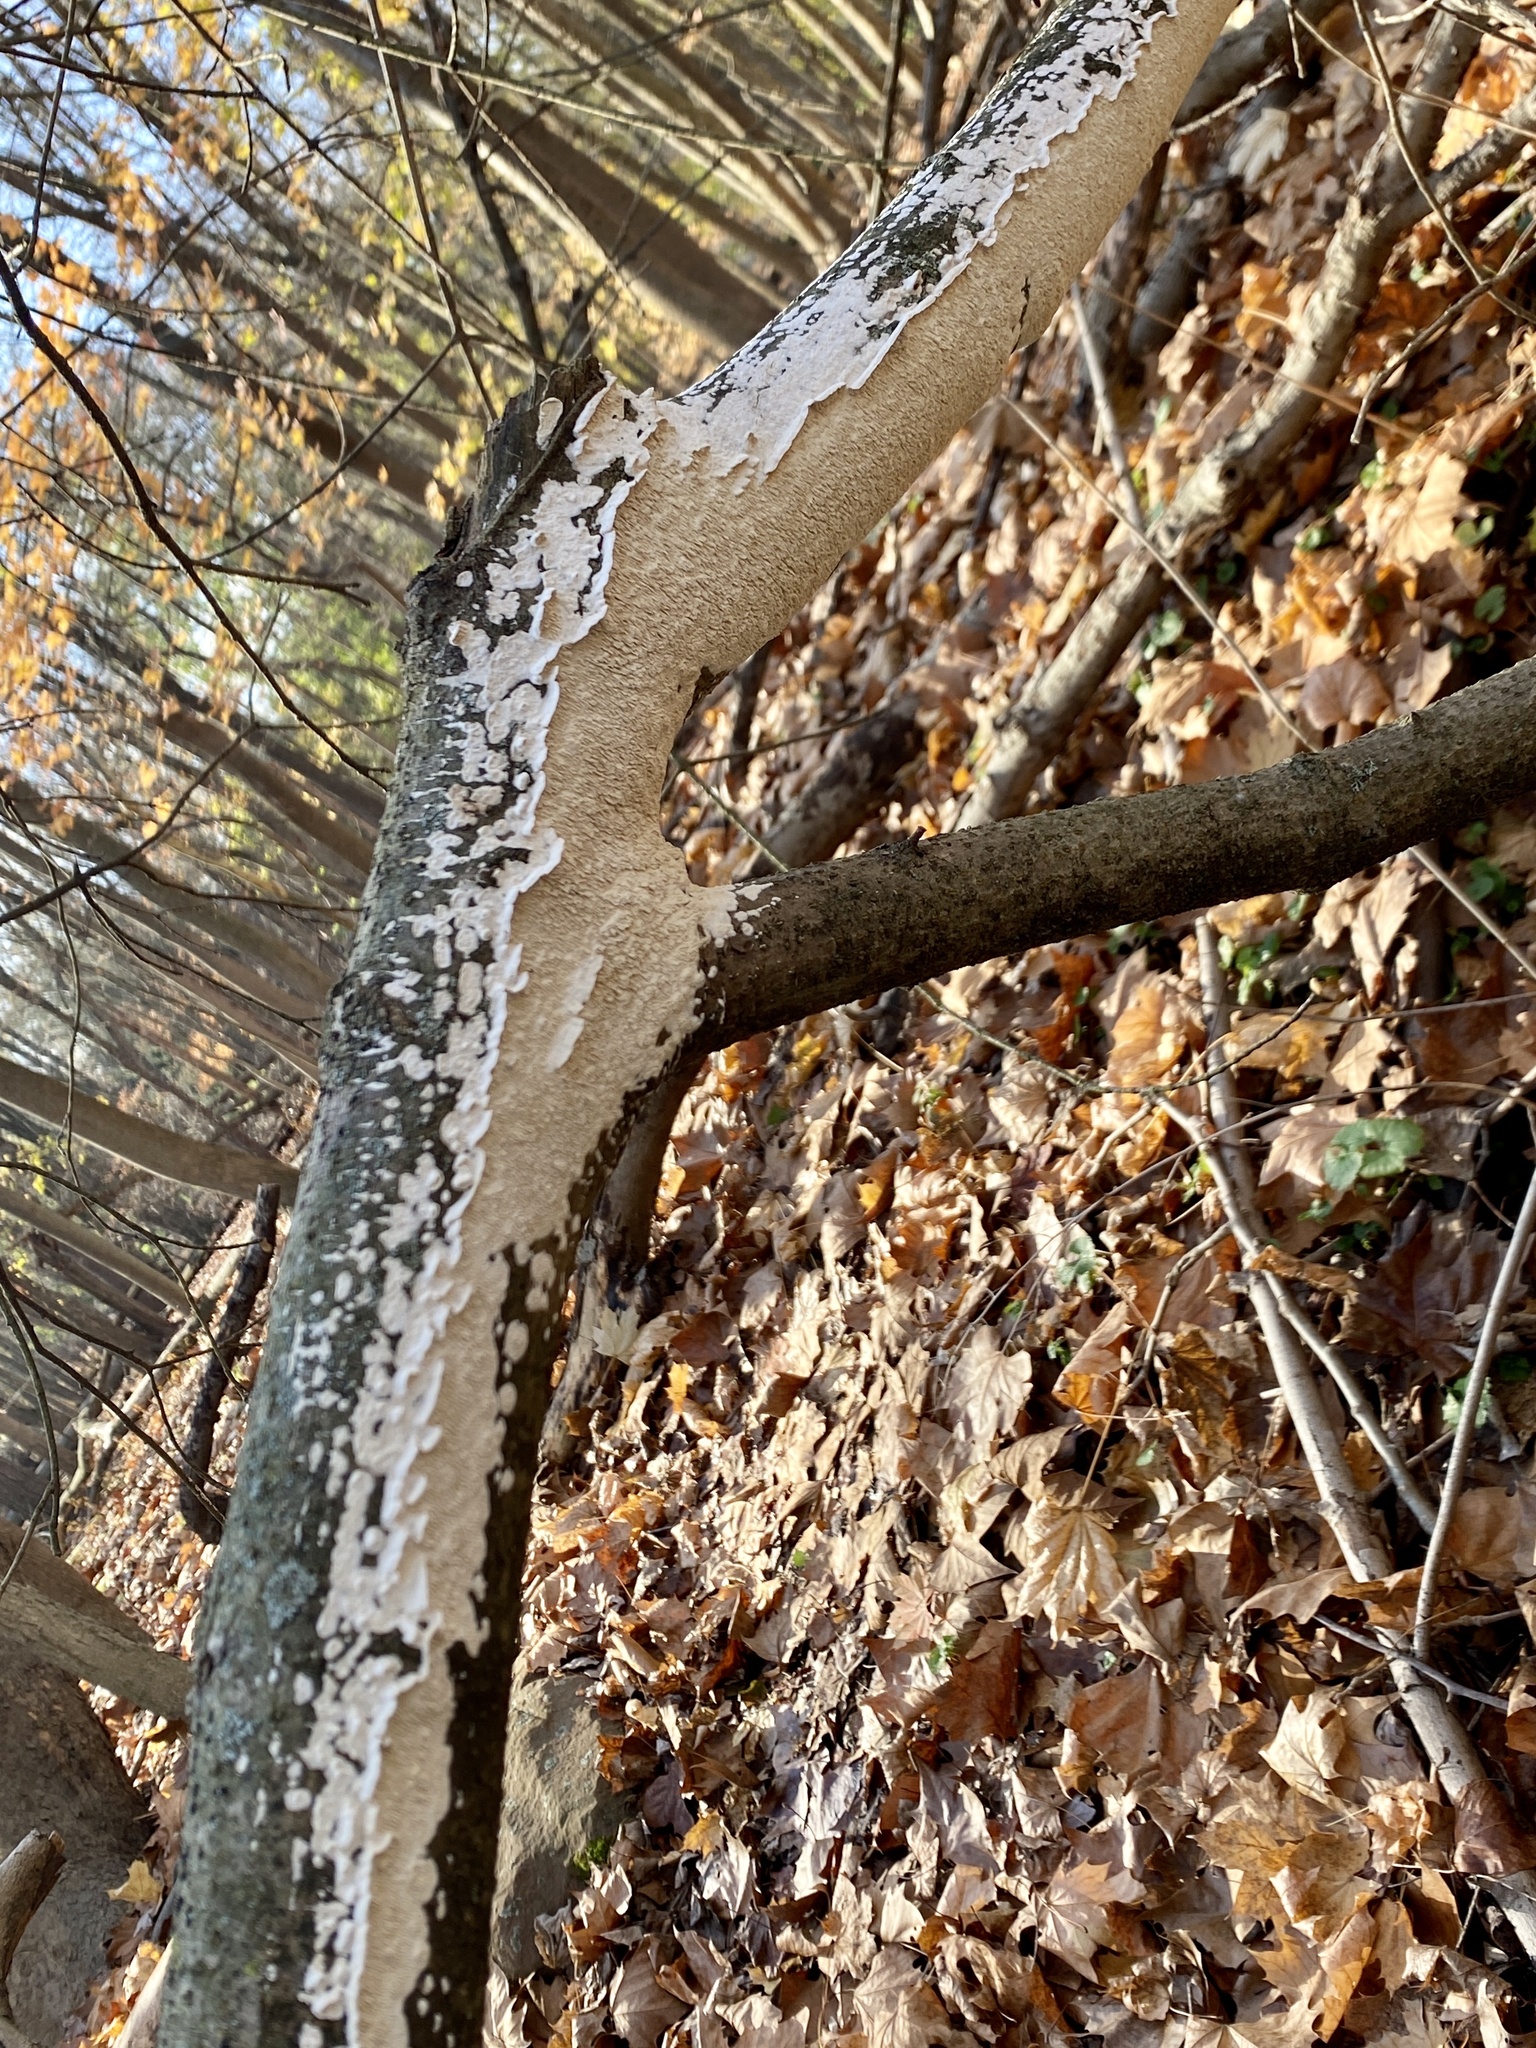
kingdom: Fungi
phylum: Basidiomycota
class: Agaricomycetes
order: Polyporales
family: Irpicaceae
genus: Irpex
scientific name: Irpex lacteus
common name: Milk-white toothed polypore
